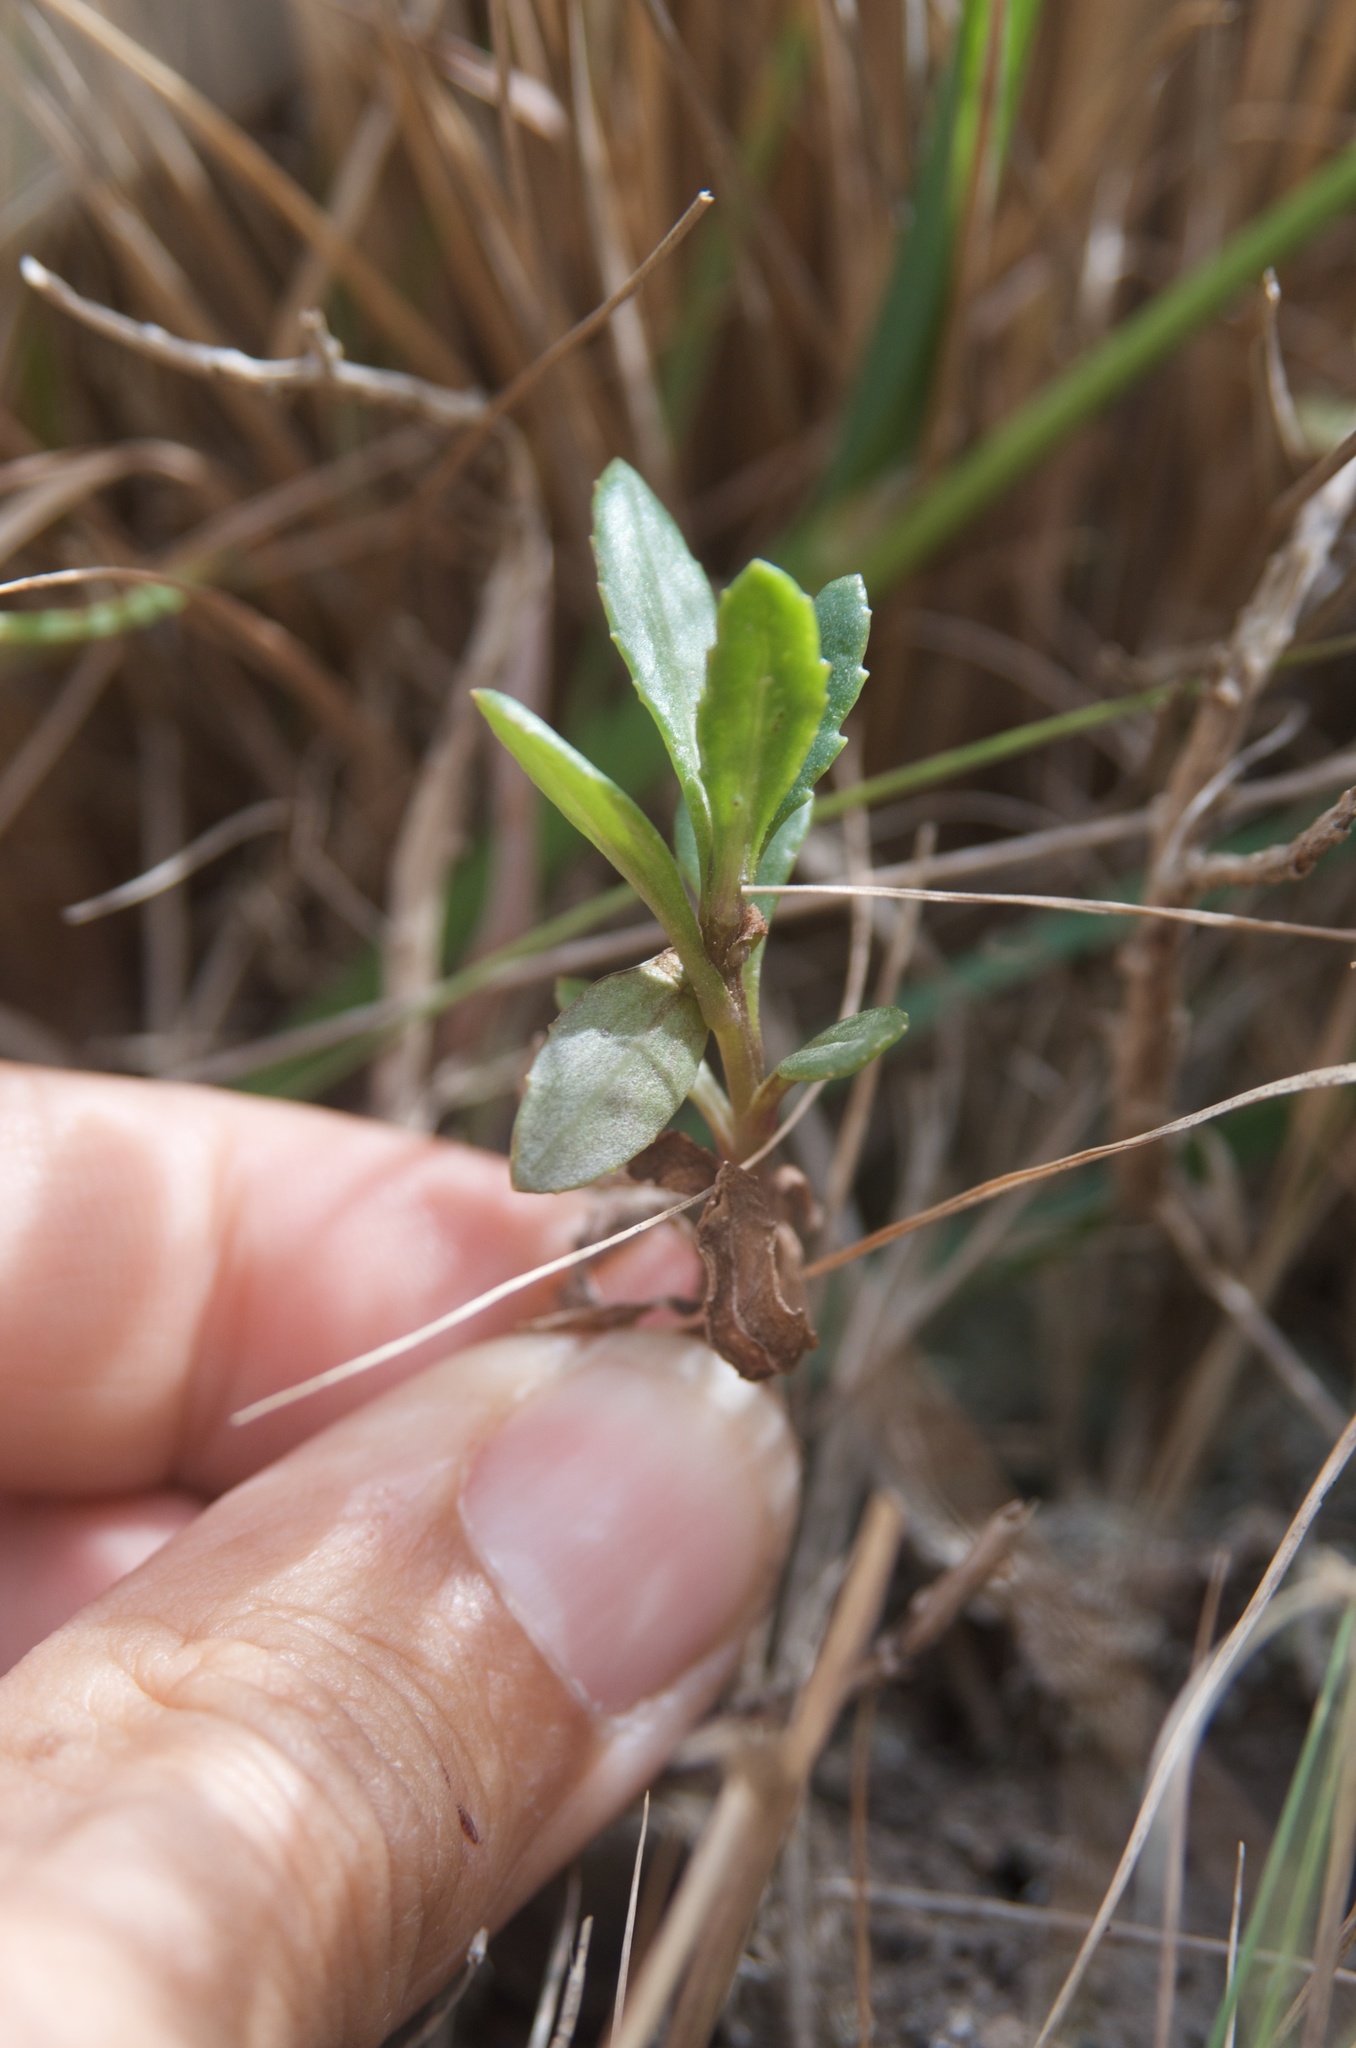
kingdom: Plantae
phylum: Tracheophyta
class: Magnoliopsida
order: Asterales
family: Asteraceae
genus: Senecio
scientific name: Senecio matatini
